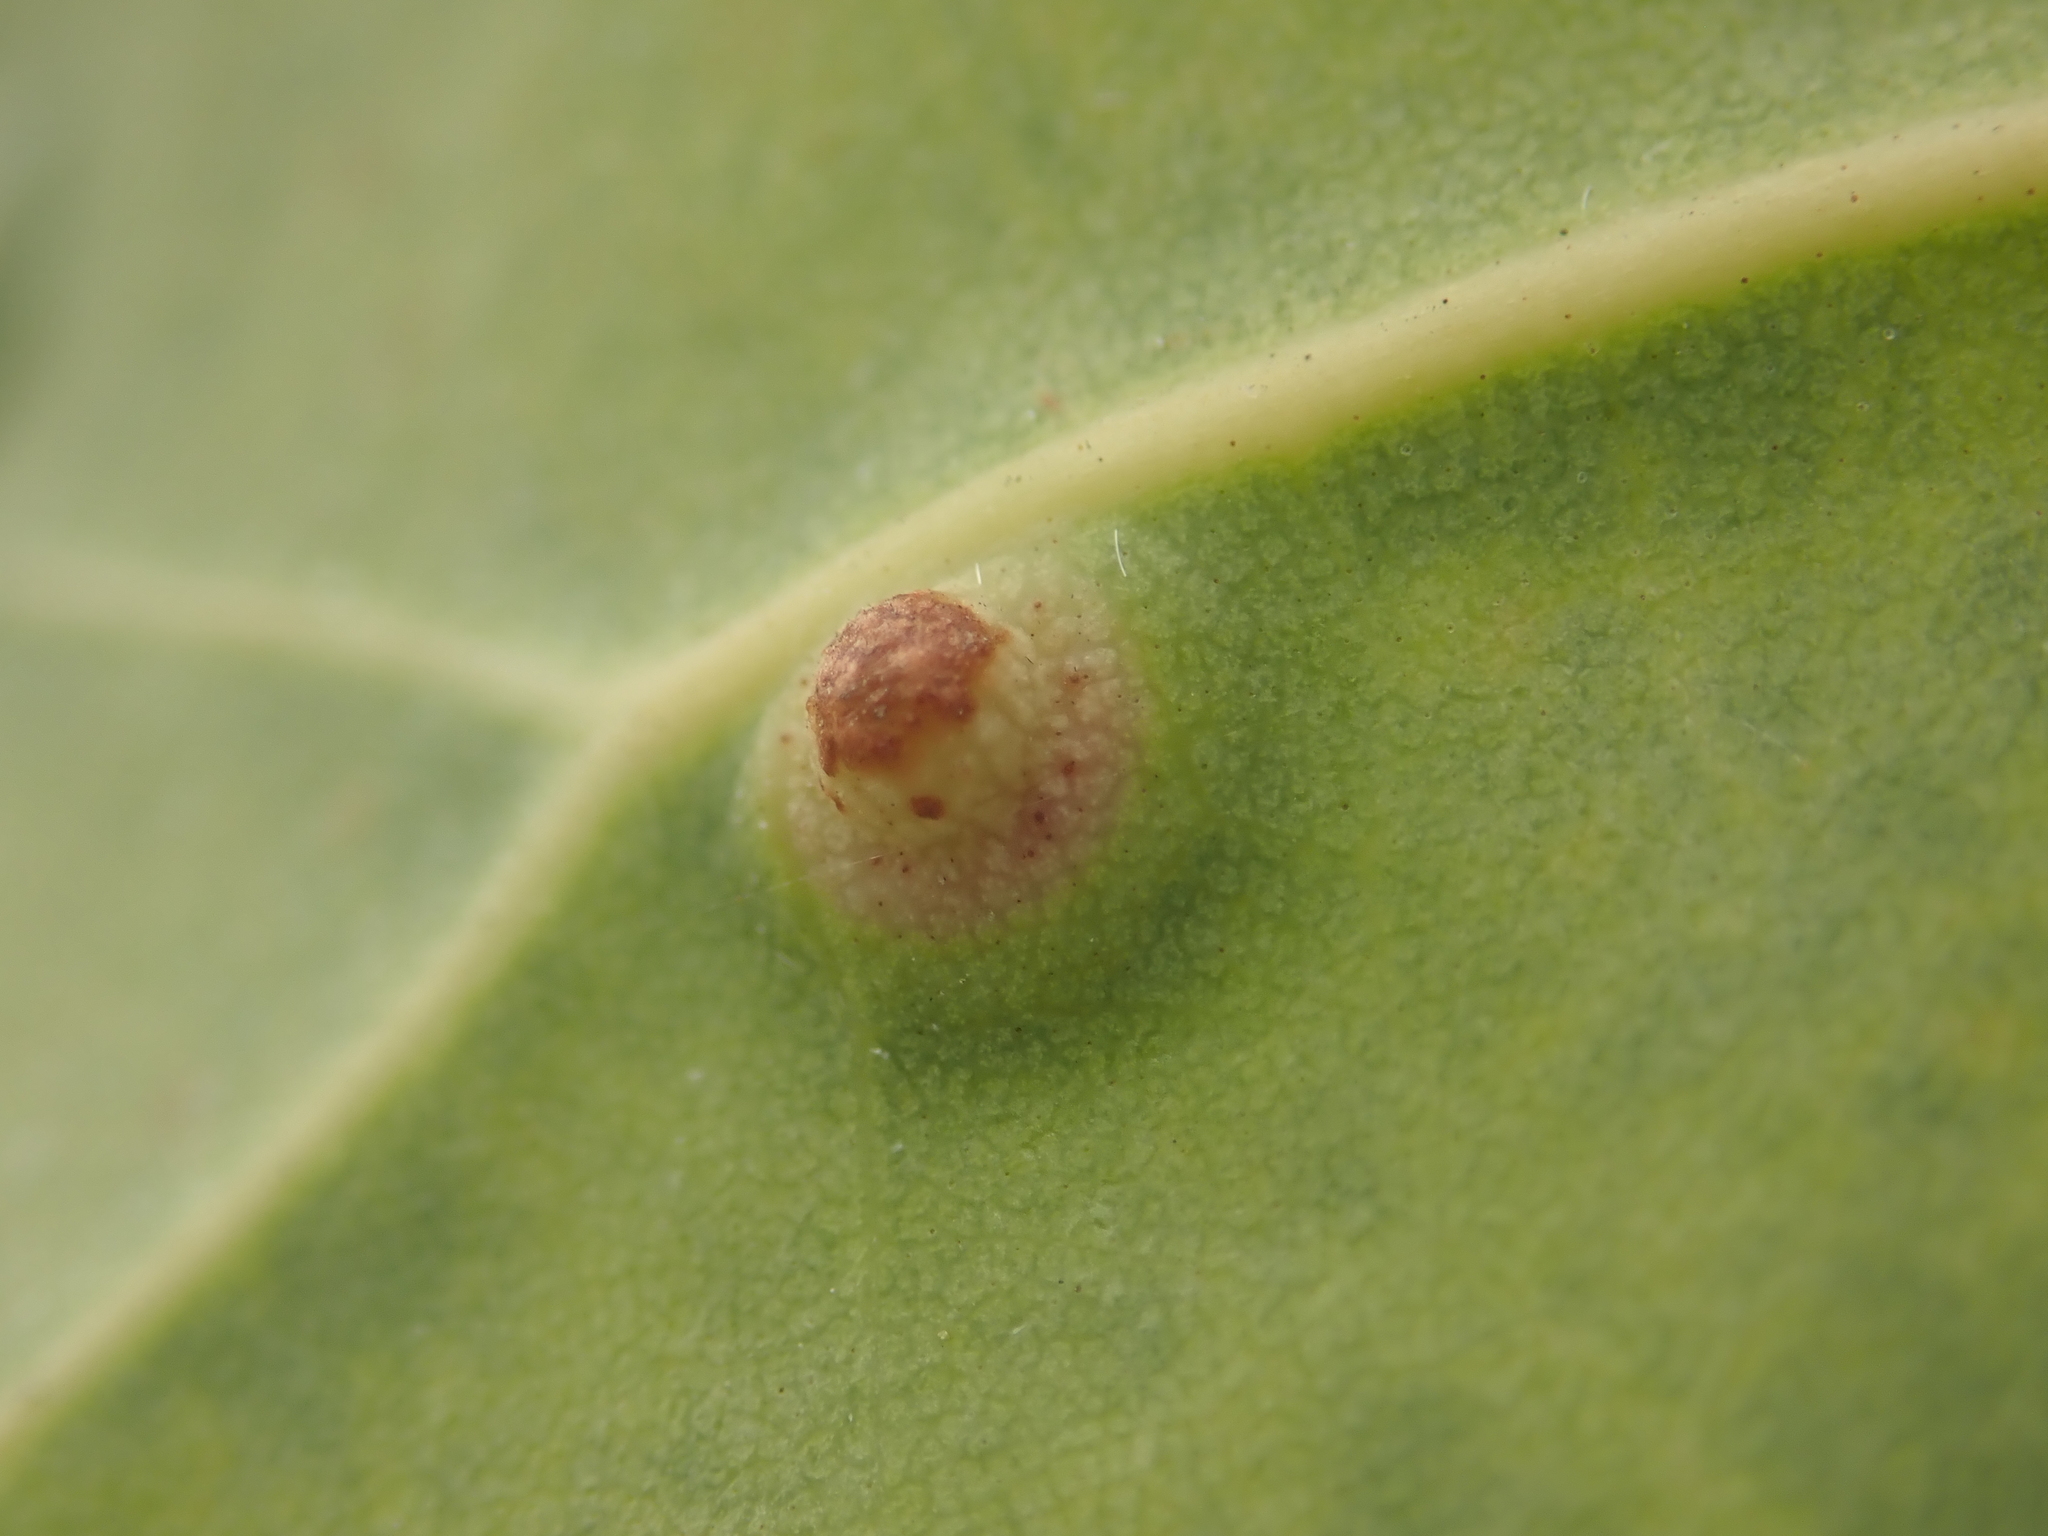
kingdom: Animalia
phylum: Arthropoda
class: Insecta
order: Diptera
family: Cecidomyiidae
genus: Ctenodactylomyia
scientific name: Ctenodactylomyia watsoni
